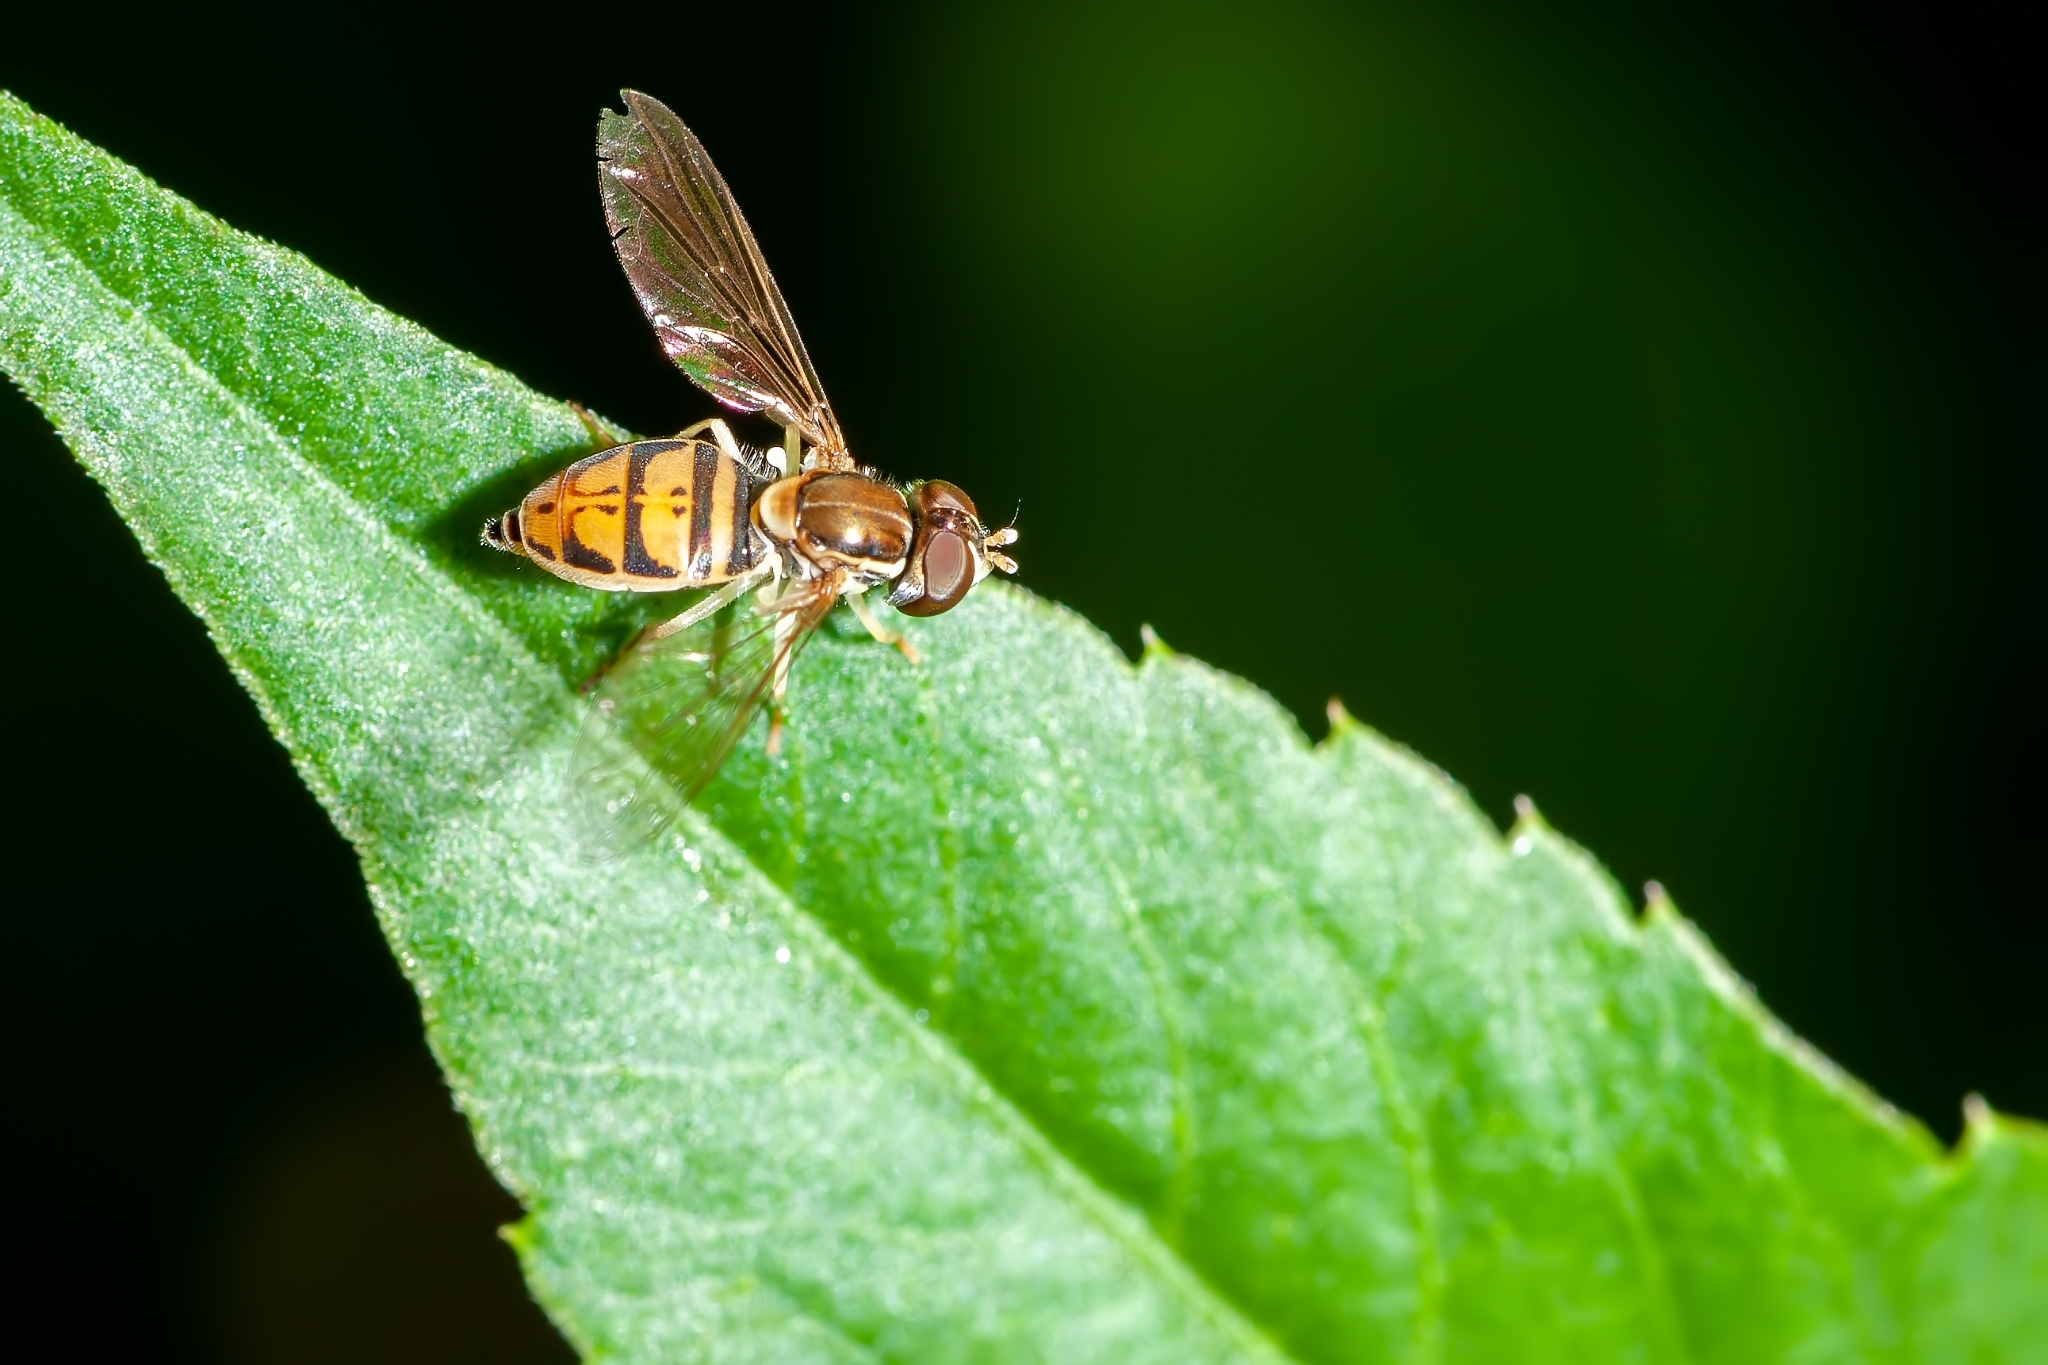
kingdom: Animalia
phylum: Arthropoda
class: Insecta
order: Diptera
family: Syrphidae
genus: Toxomerus
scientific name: Toxomerus marginatus
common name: Syrphid fly
